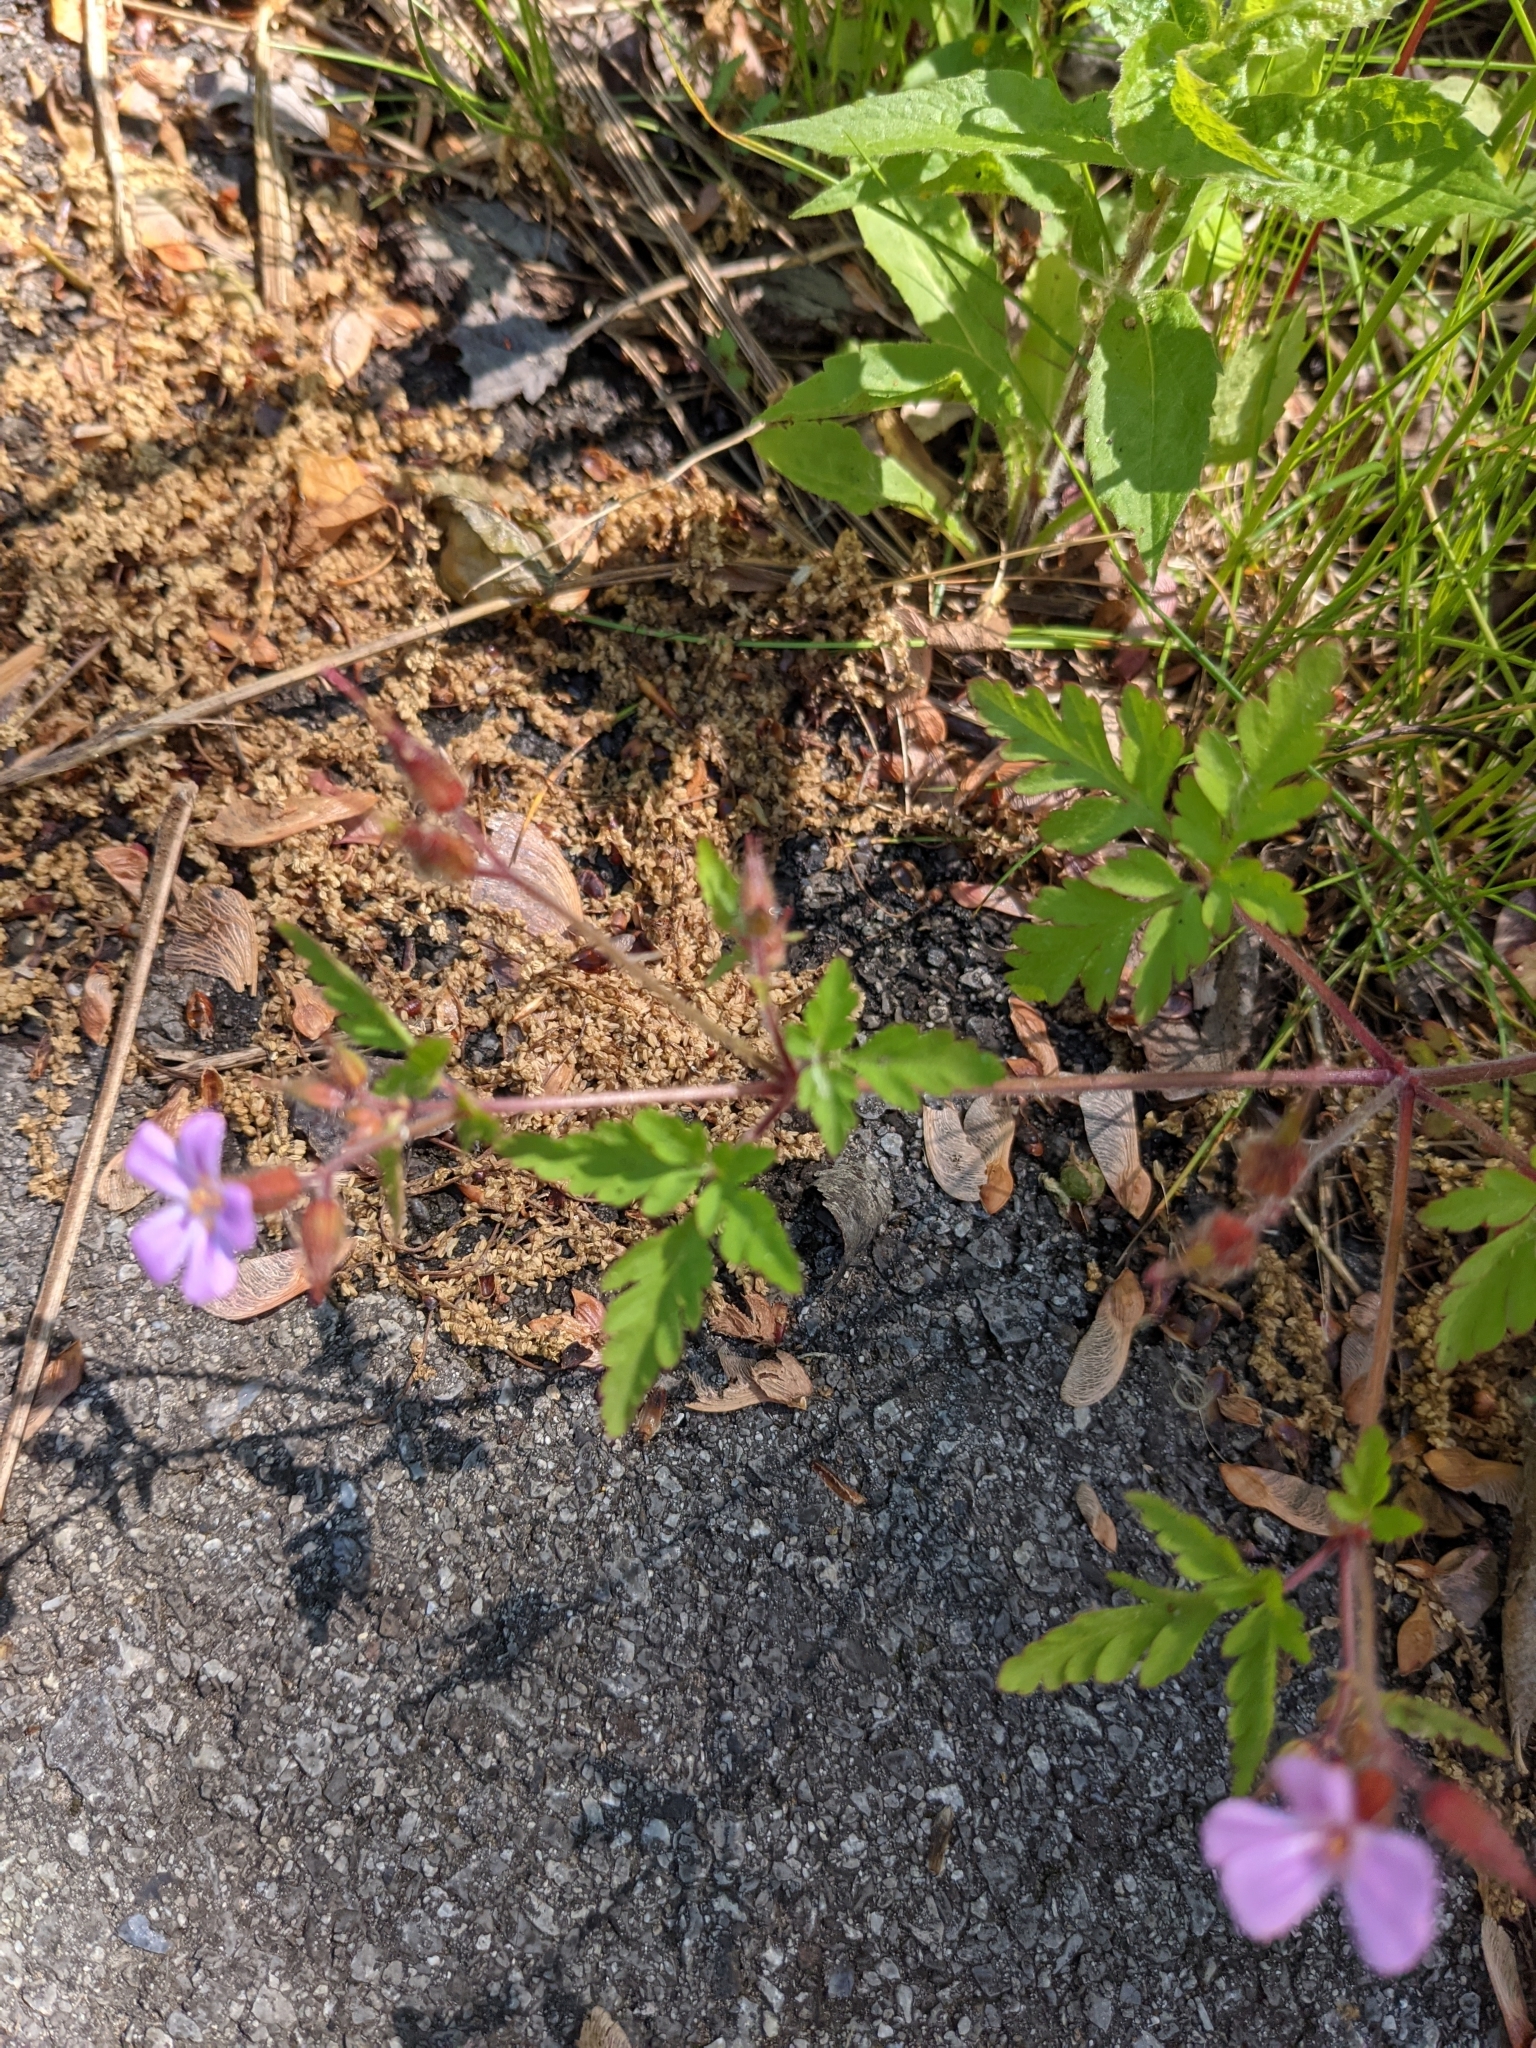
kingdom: Plantae
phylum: Tracheophyta
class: Magnoliopsida
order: Geraniales
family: Geraniaceae
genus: Geranium
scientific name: Geranium robertianum
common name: Herb-robert
